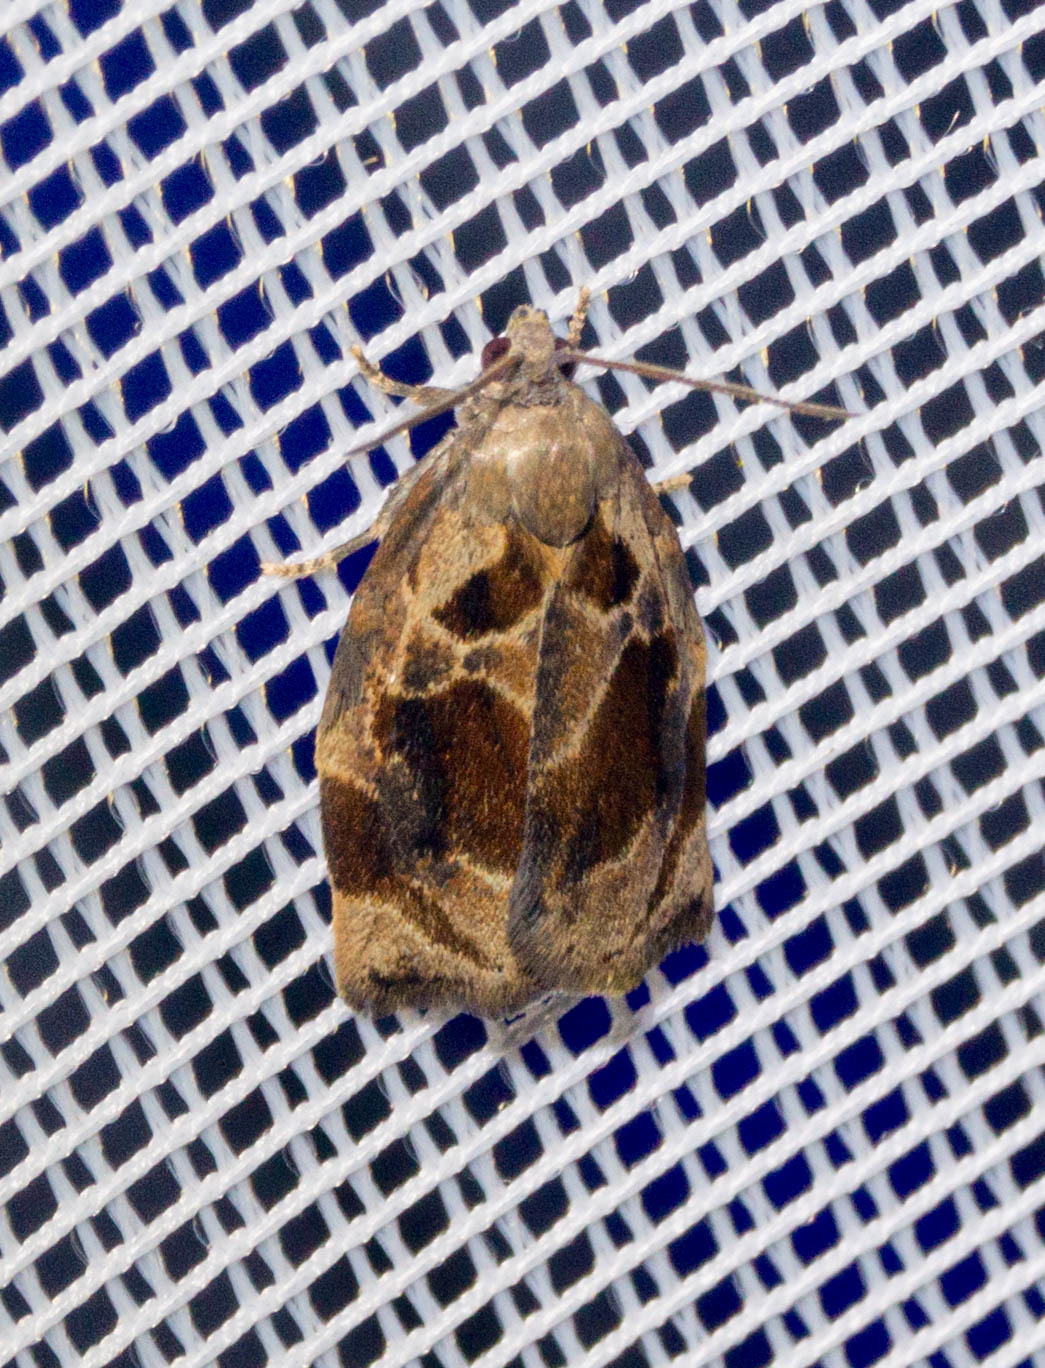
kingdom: Animalia
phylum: Arthropoda
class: Insecta
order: Lepidoptera
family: Tortricidae
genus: Archips
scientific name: Archips crataegana
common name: Brown oak tortrix
